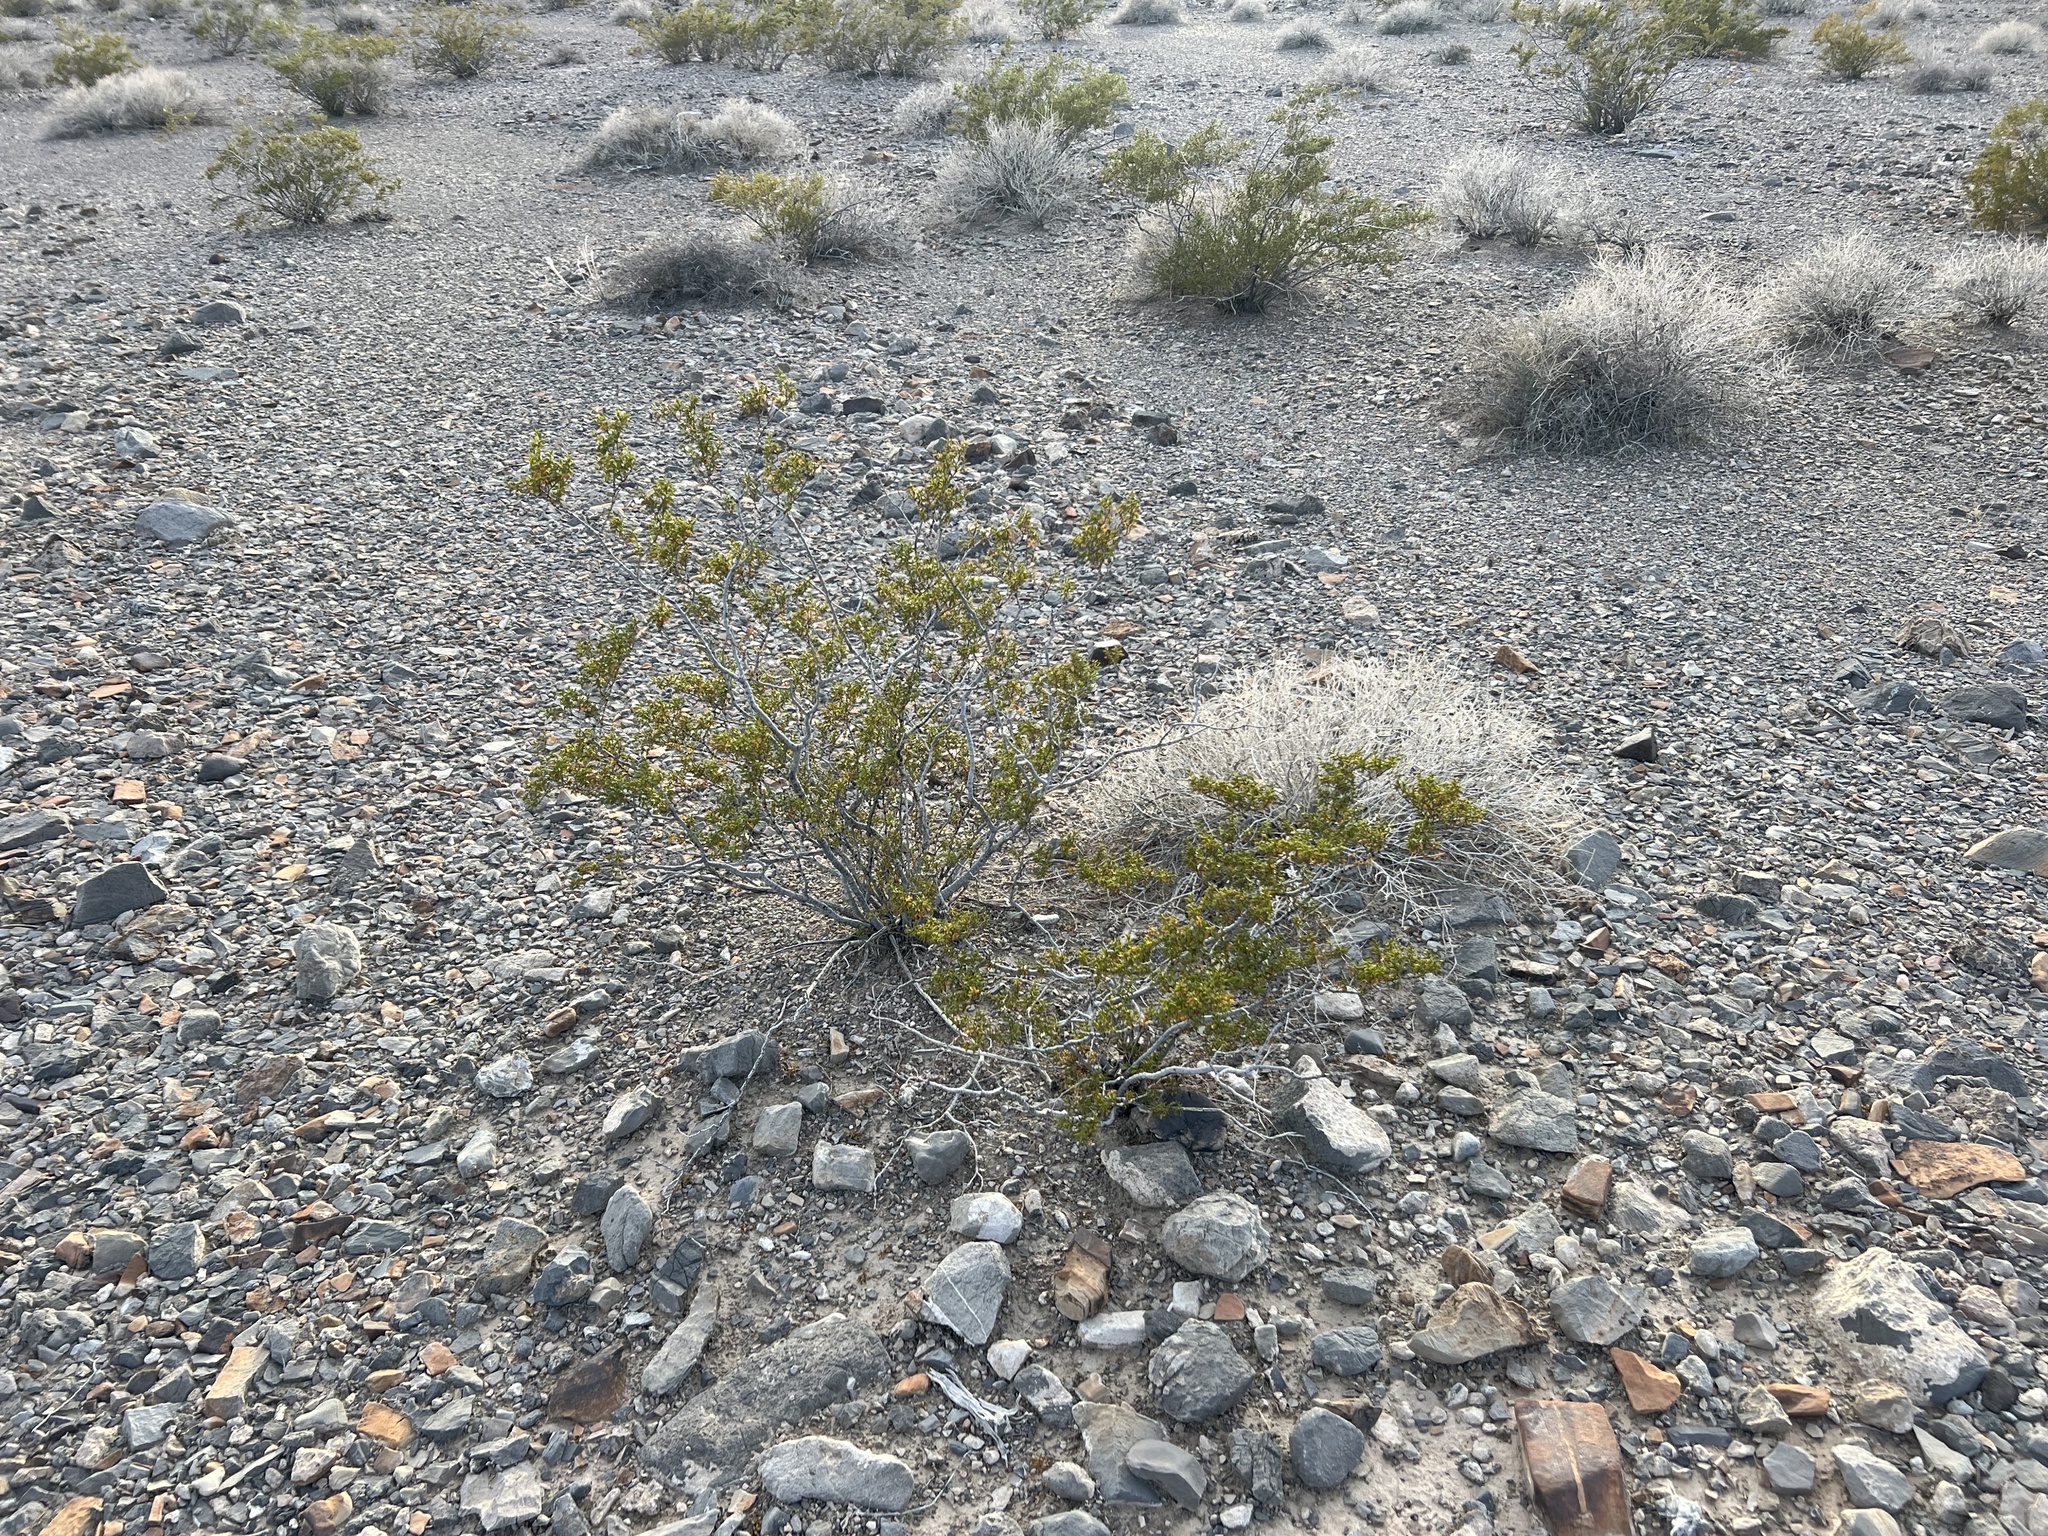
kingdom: Plantae
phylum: Tracheophyta
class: Magnoliopsida
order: Zygophyllales
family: Zygophyllaceae
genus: Larrea
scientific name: Larrea tridentata
